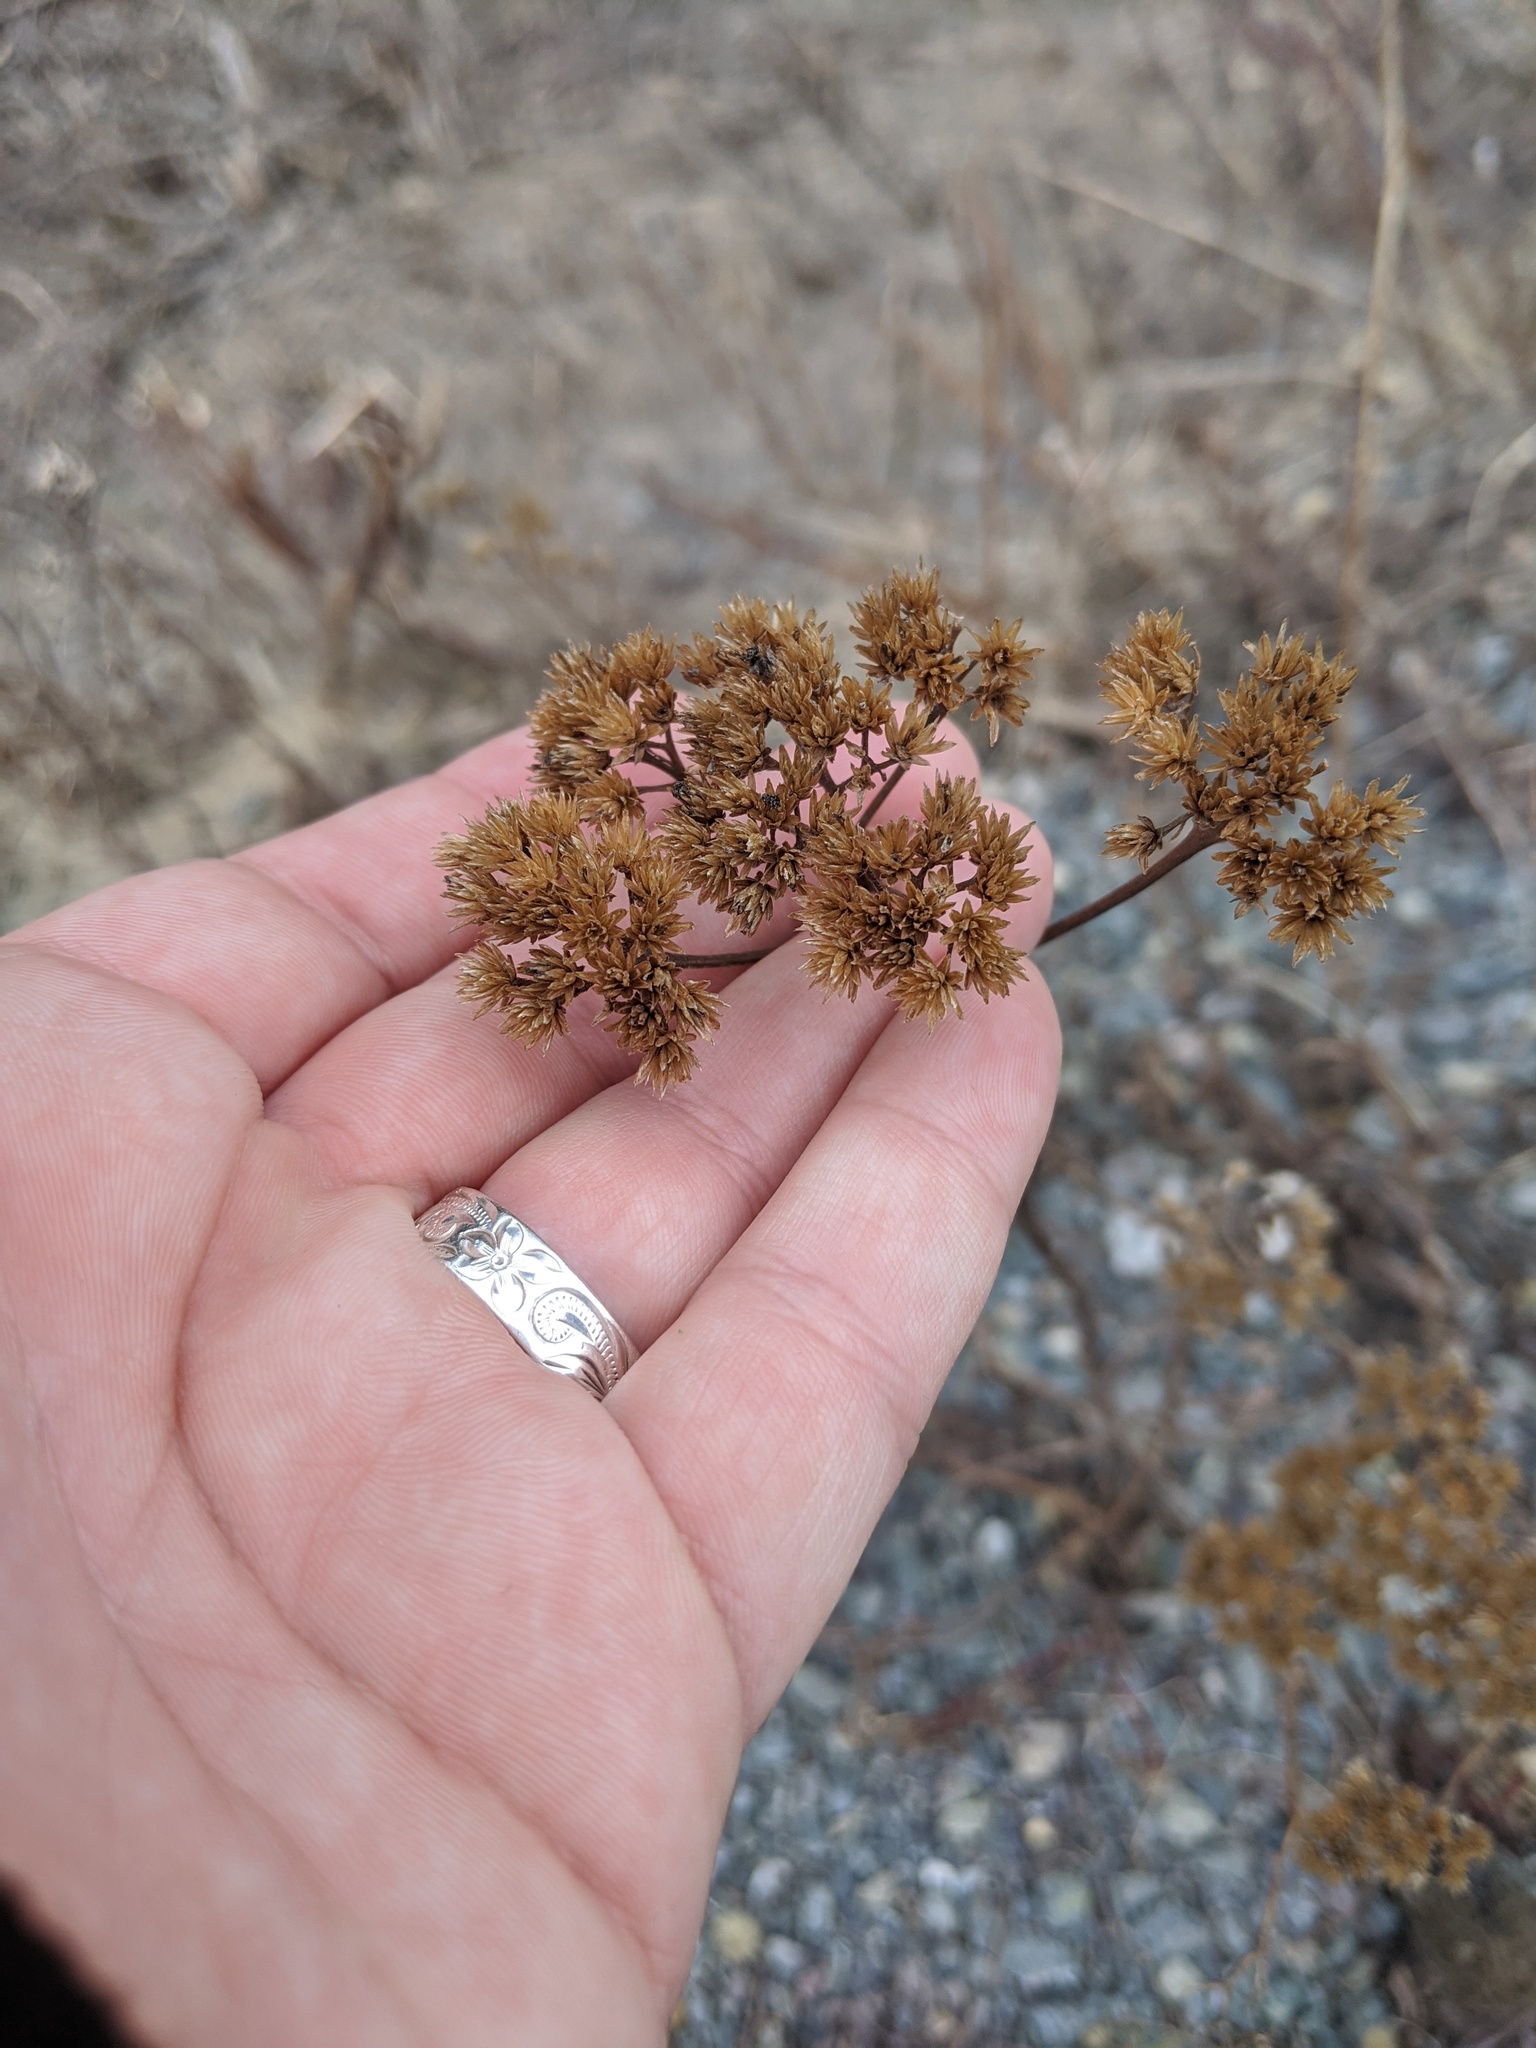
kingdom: Plantae
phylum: Tracheophyta
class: Magnoliopsida
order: Asterales
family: Asteraceae
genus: Achillea
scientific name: Achillea millefolium
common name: Yarrow
